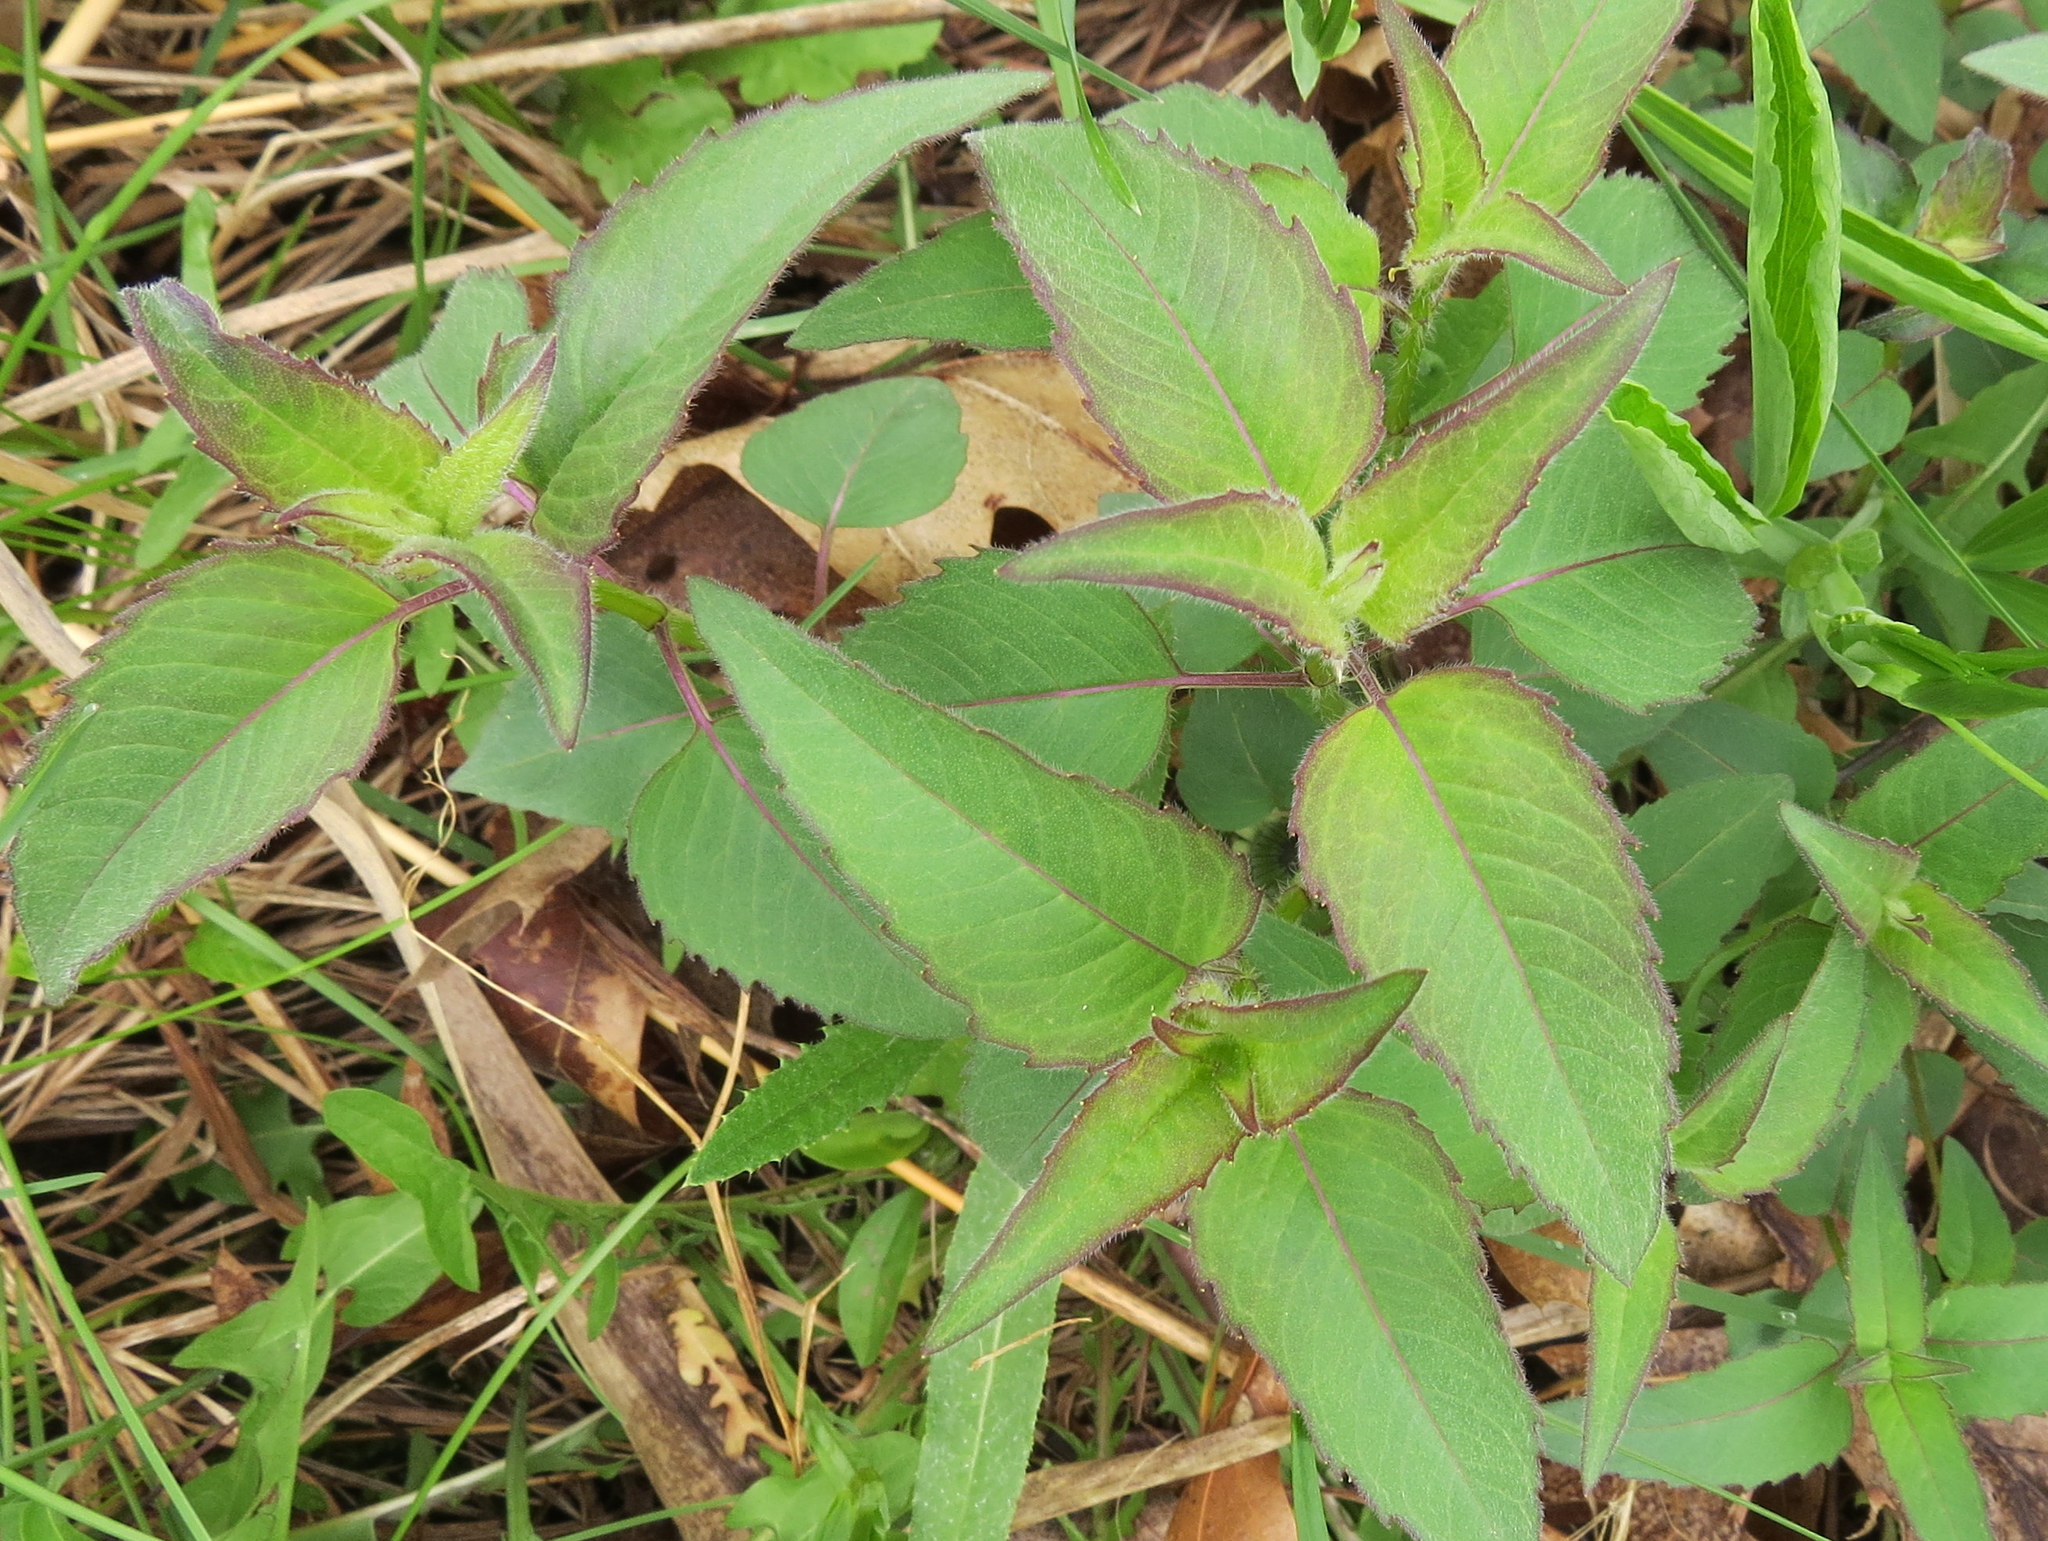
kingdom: Plantae
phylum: Tracheophyta
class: Magnoliopsida
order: Lamiales
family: Lamiaceae
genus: Monarda
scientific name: Monarda fistulosa
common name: Purple beebalm
